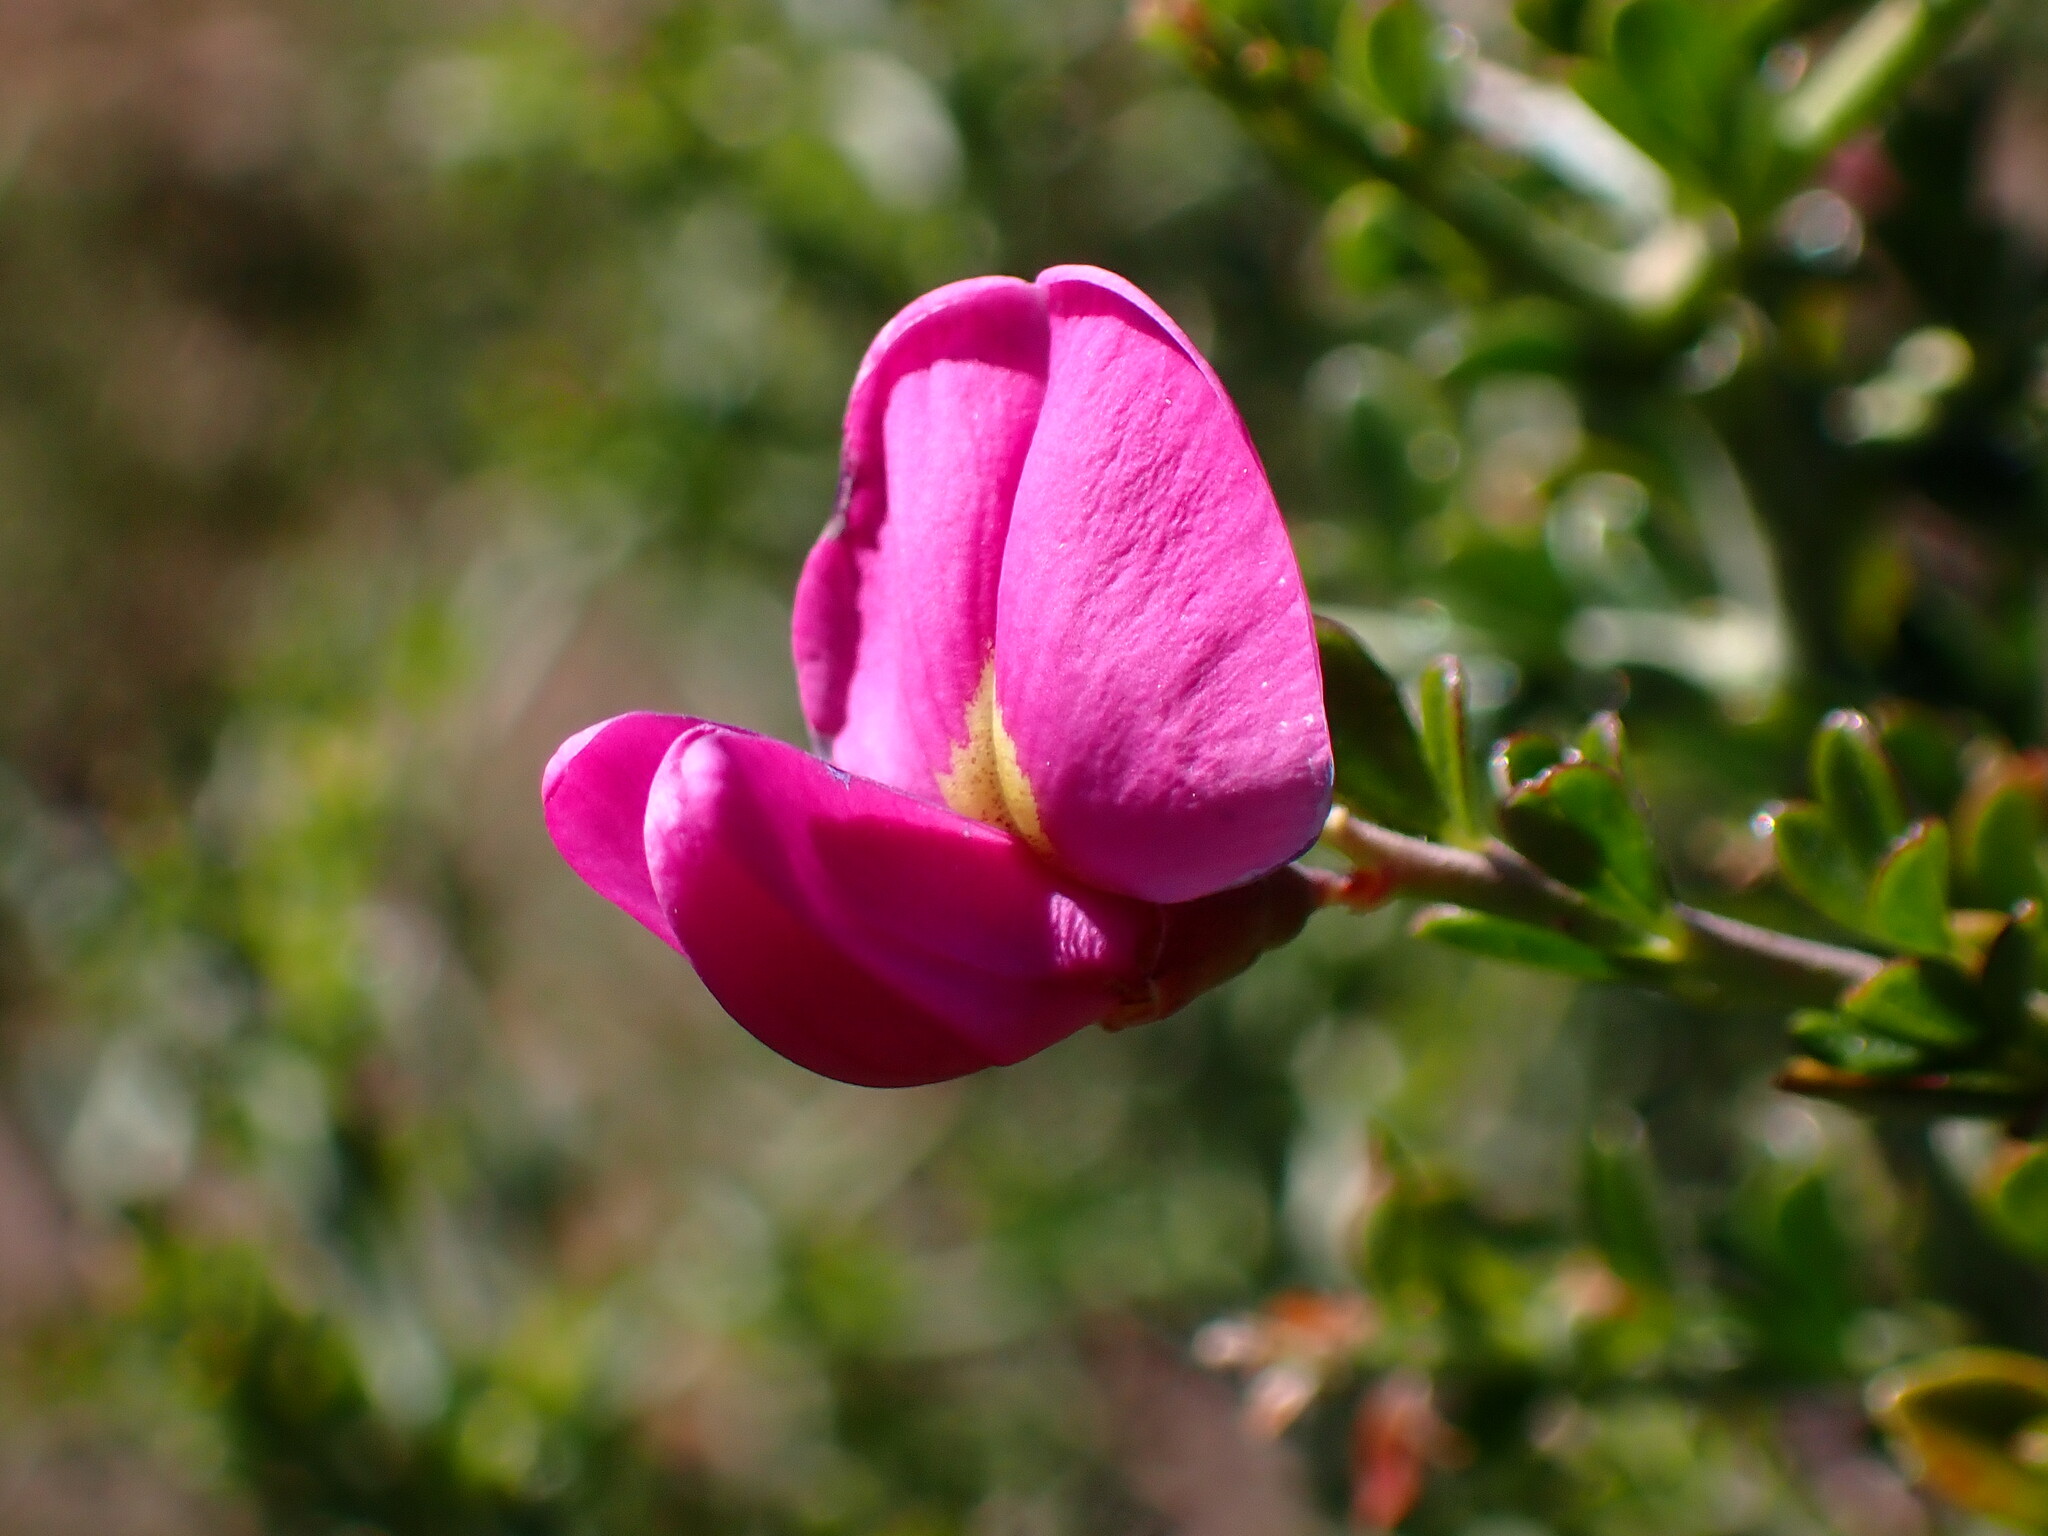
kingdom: Plantae
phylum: Tracheophyta
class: Magnoliopsida
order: Fabales
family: Fabaceae
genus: Pickeringia
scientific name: Pickeringia montana
